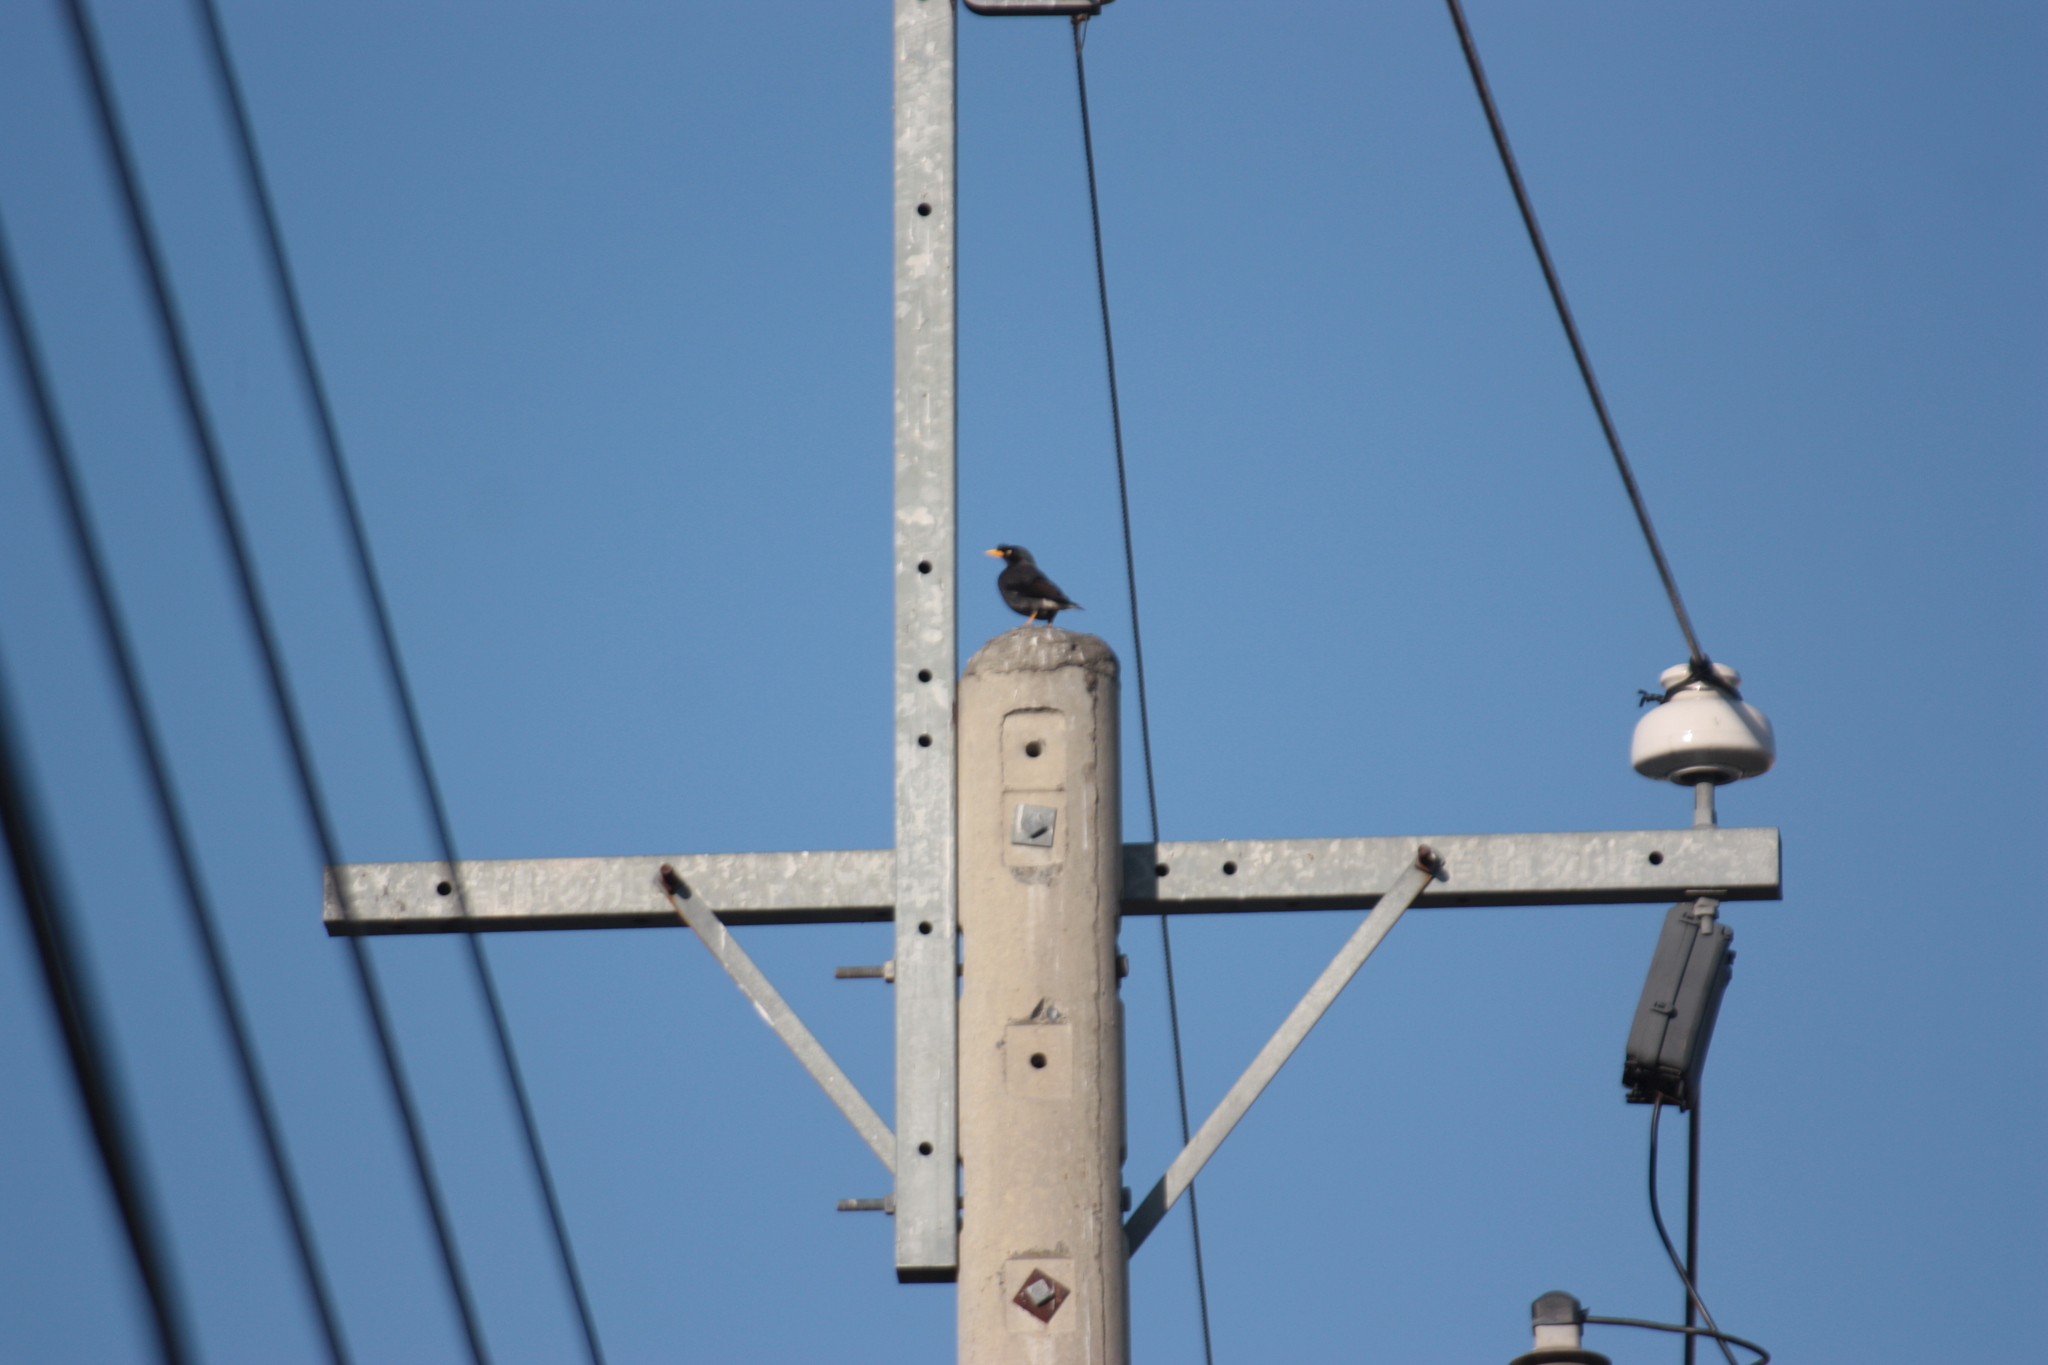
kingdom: Animalia
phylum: Chordata
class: Aves
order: Passeriformes
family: Sturnidae
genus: Acridotheres
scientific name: Acridotheres javanicus
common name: Javan myna
